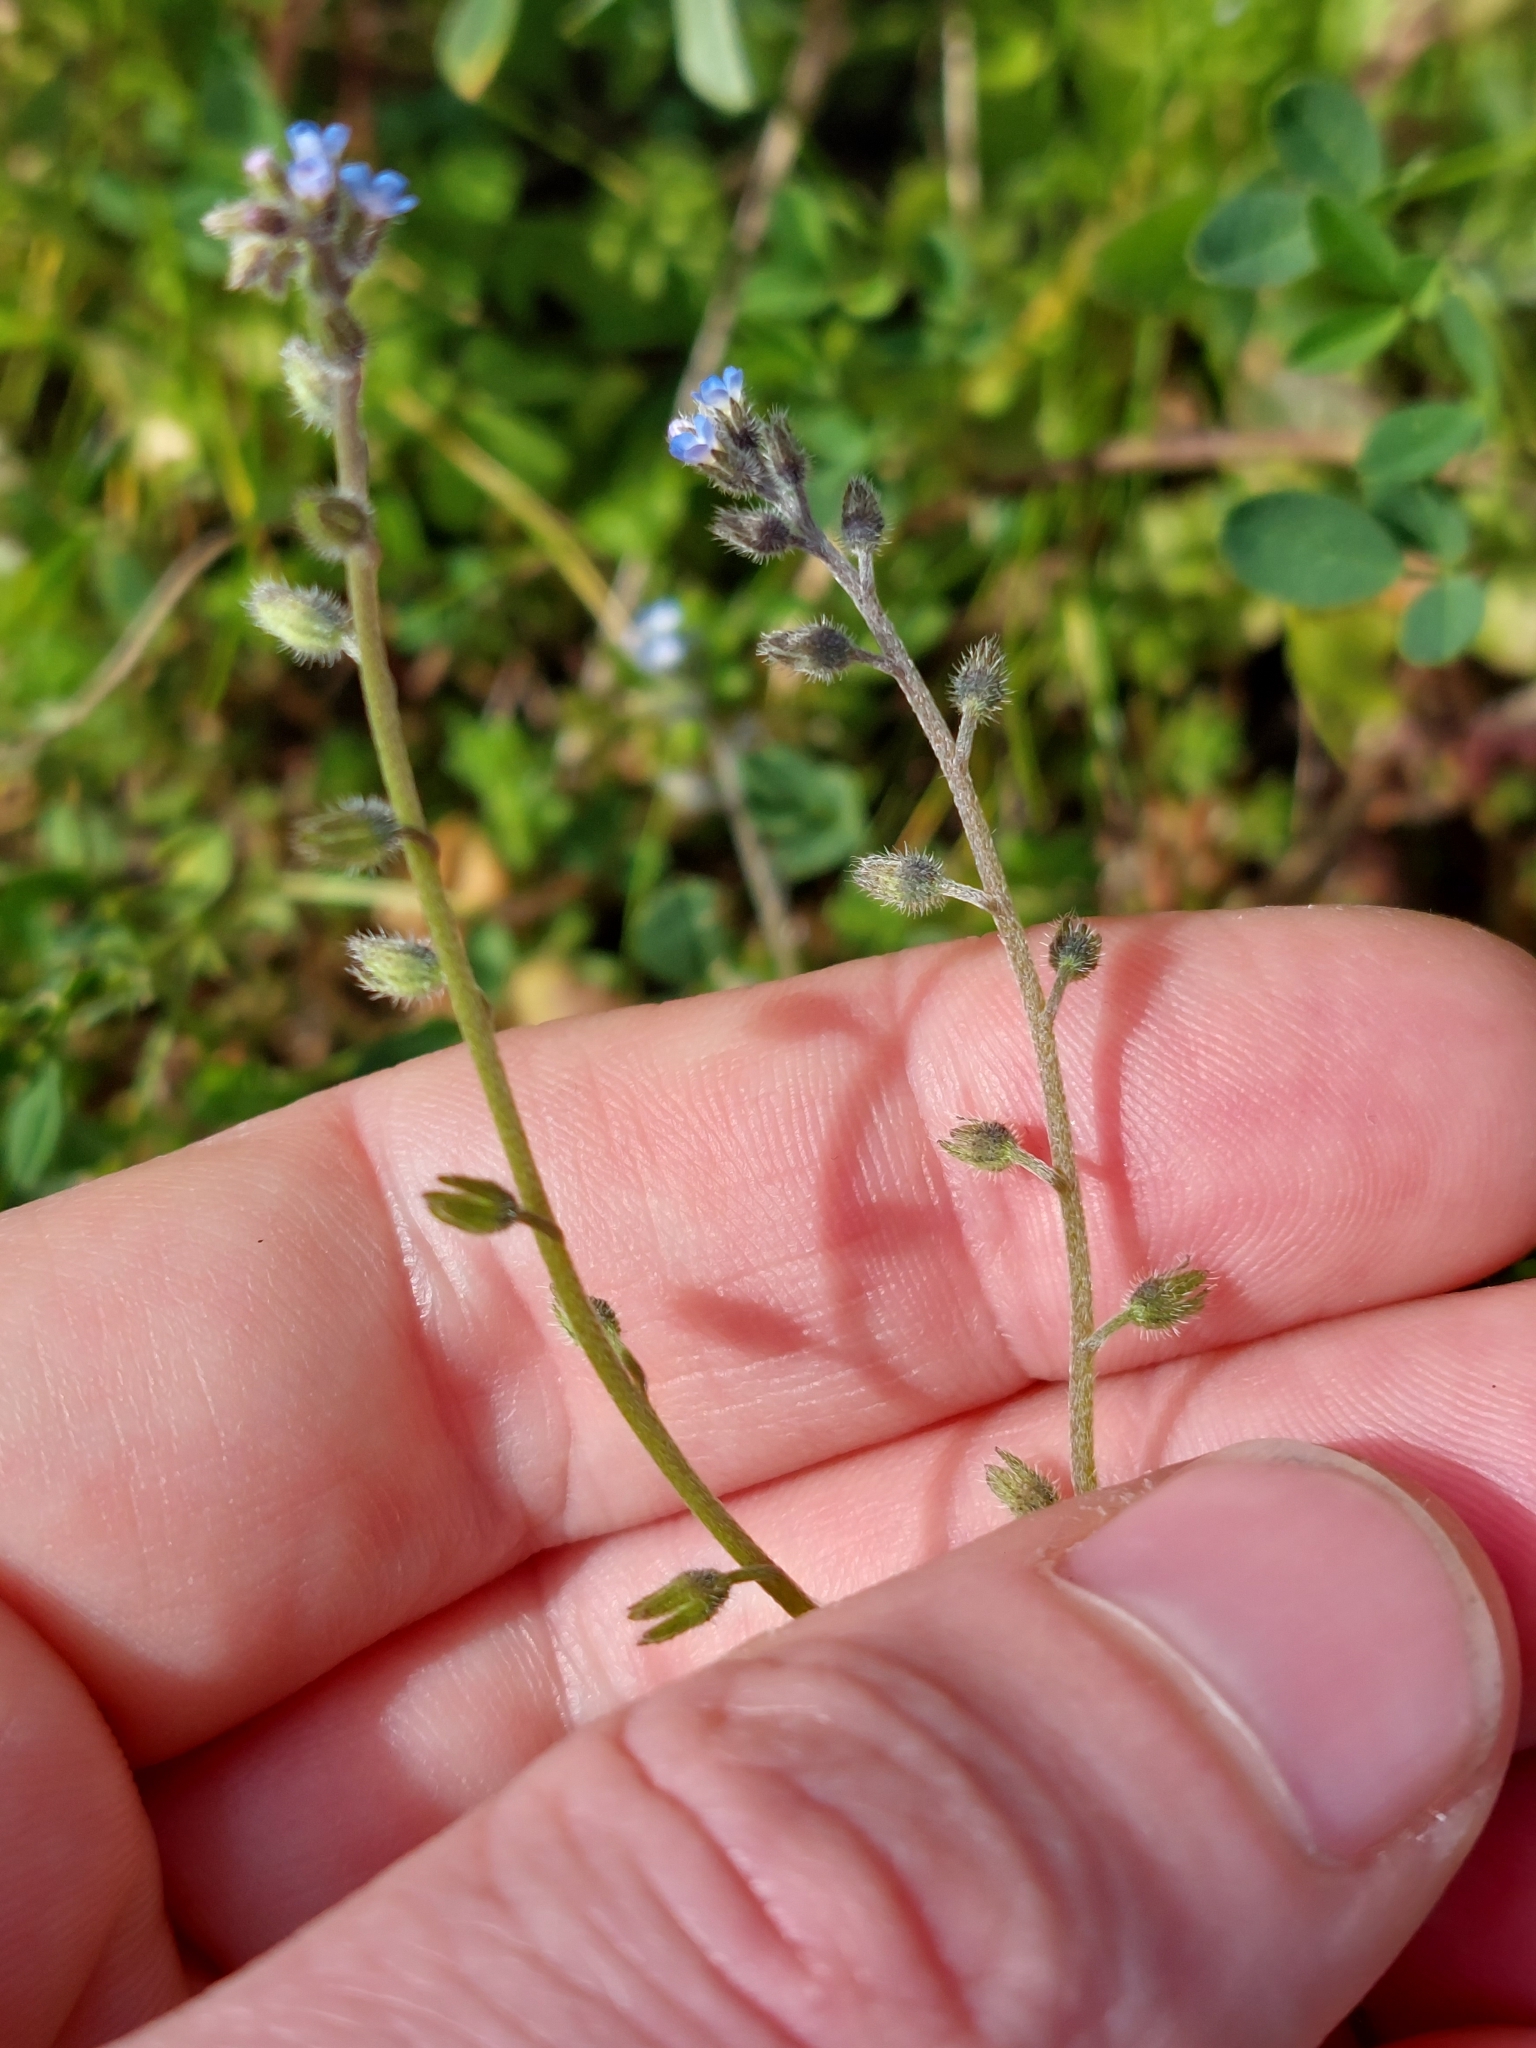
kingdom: Plantae
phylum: Tracheophyta
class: Magnoliopsida
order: Boraginales
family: Boraginaceae
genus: Myosotis
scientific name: Myosotis ramosissima
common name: Early forget-me-not
